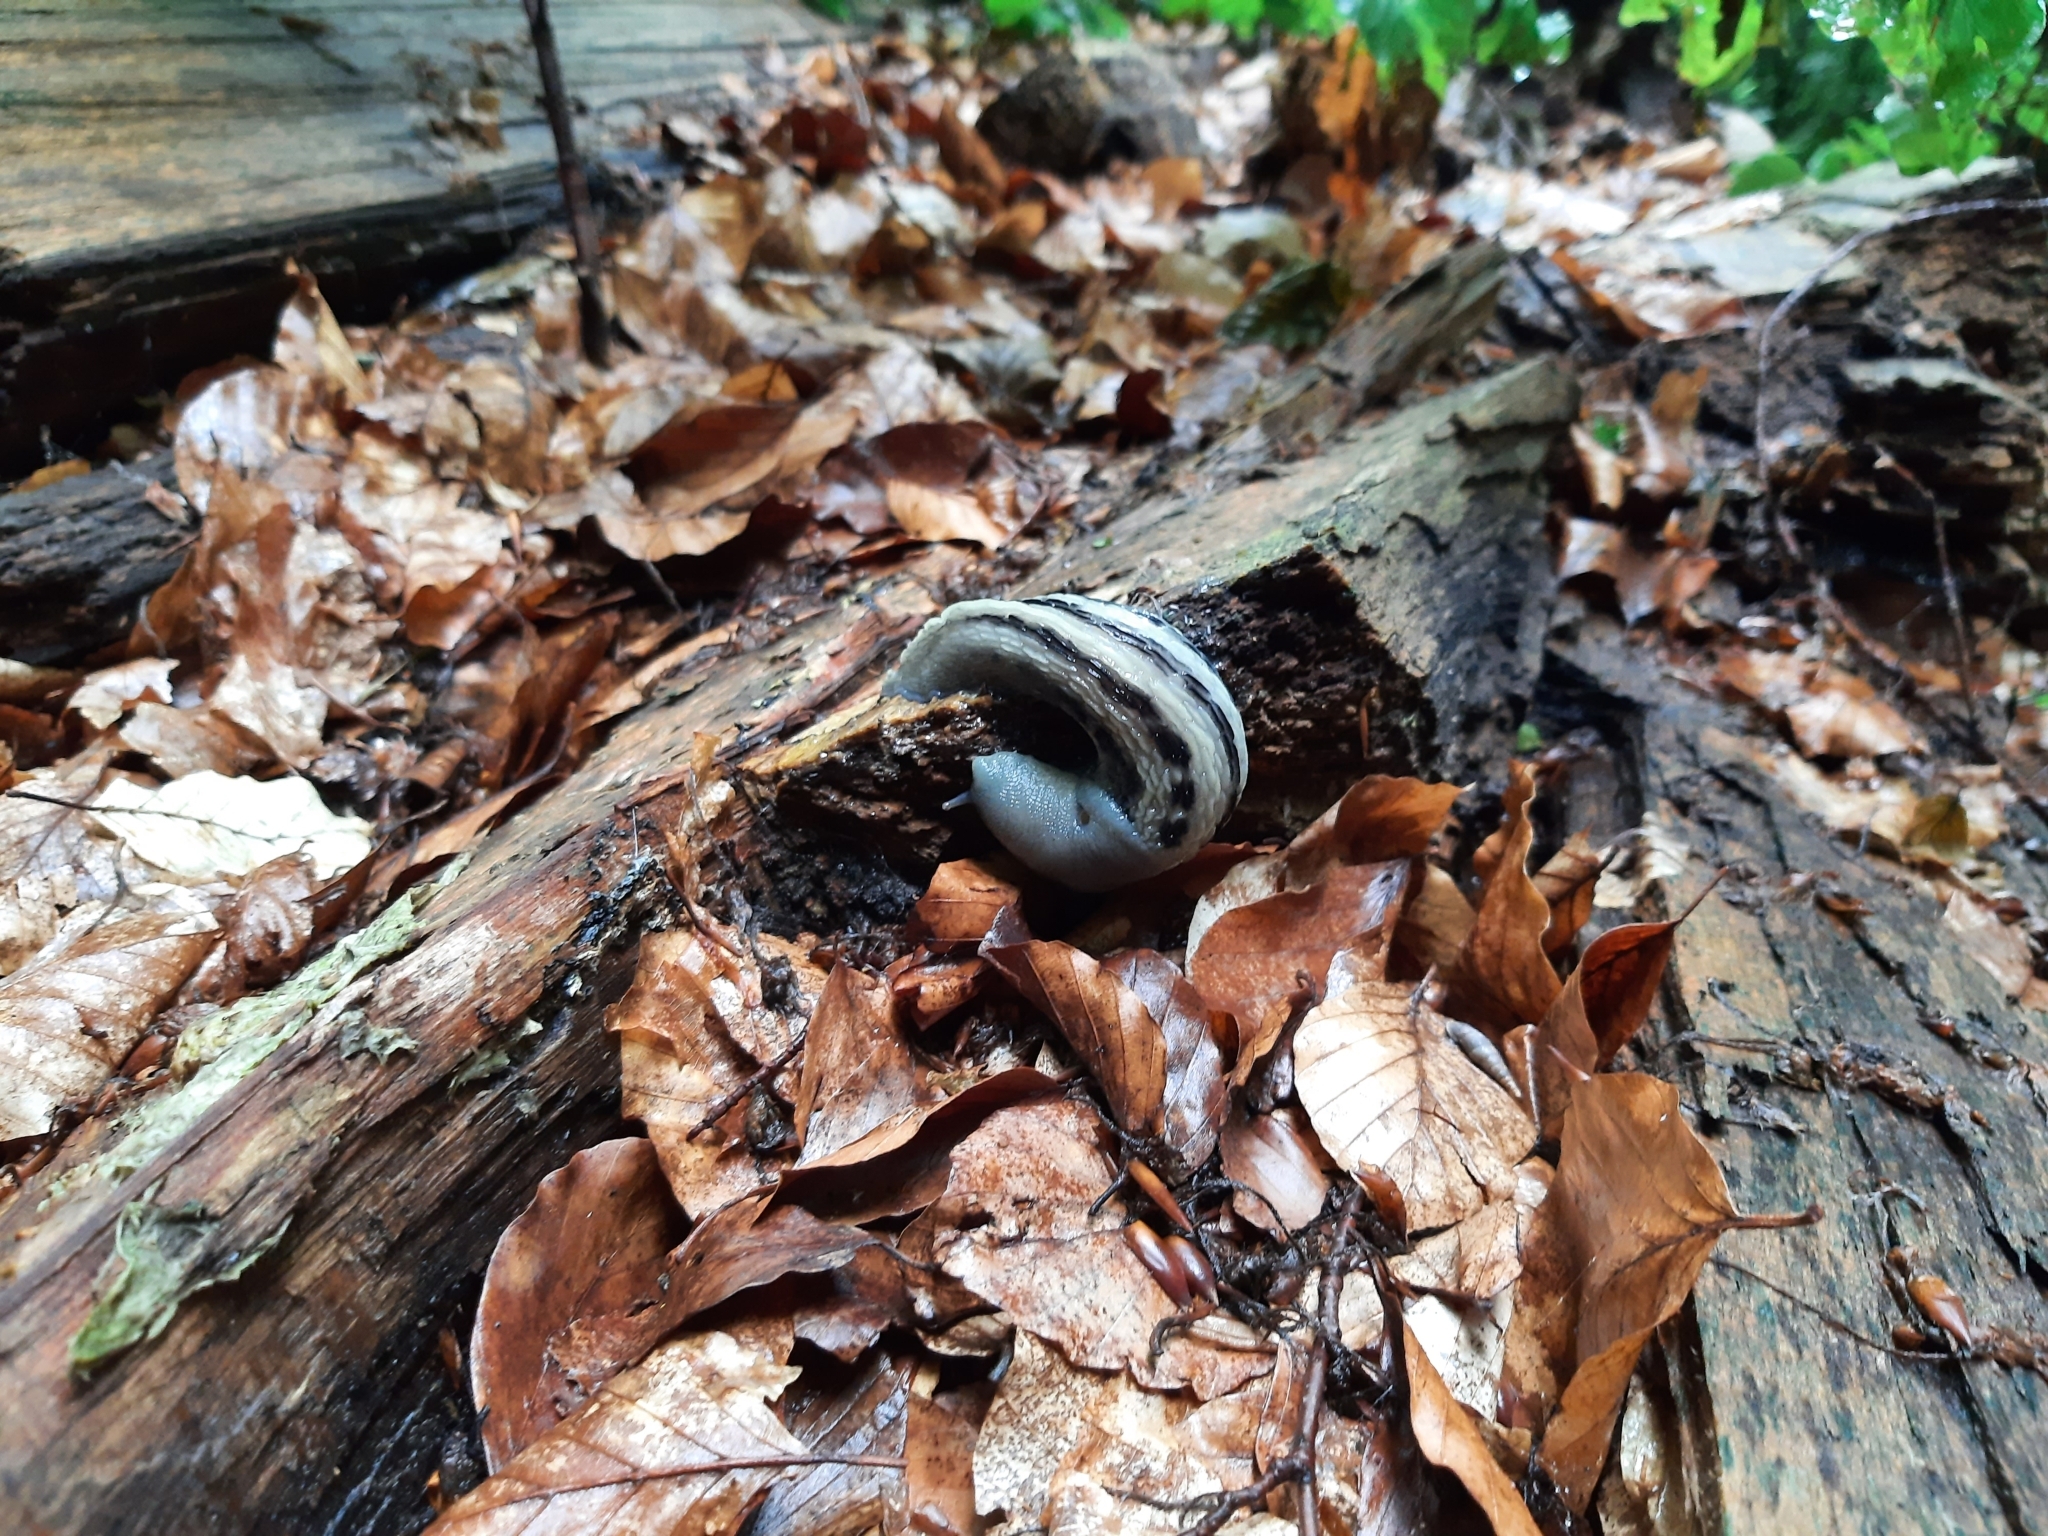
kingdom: Animalia
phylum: Mollusca
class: Gastropoda
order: Stylommatophora
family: Limacidae
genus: Limax
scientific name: Limax cinereoniger
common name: Ash-black slug
